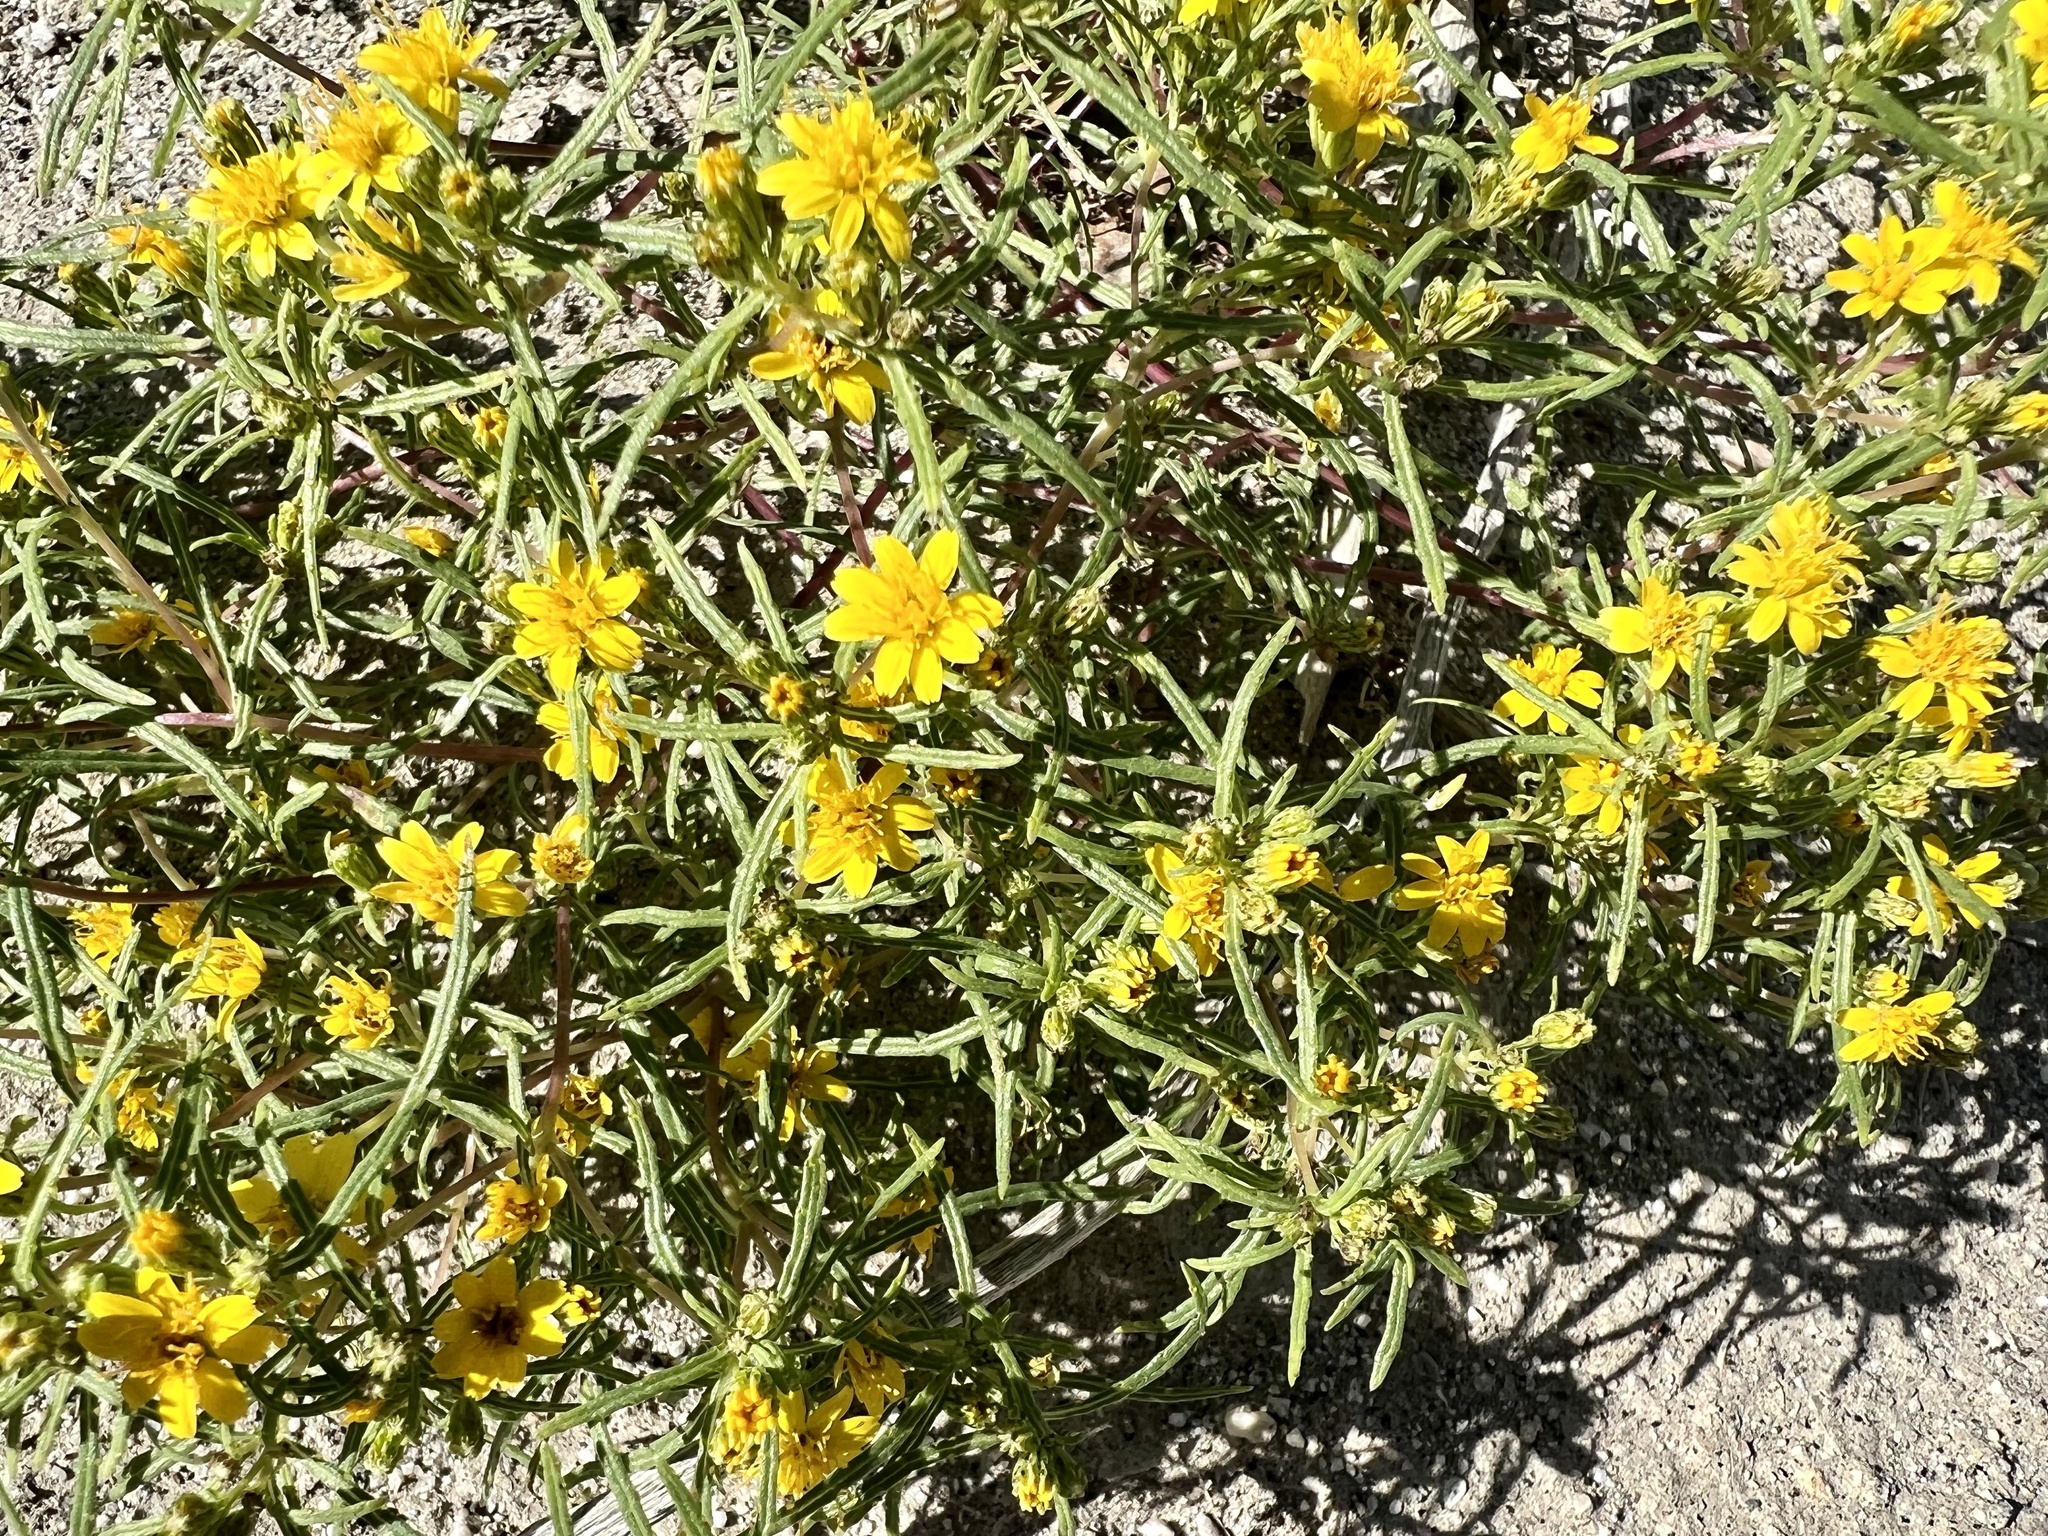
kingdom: Plantae
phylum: Tracheophyta
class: Magnoliopsida
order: Asterales
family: Asteraceae
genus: Pectis
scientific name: Pectis papposa
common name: Many-bristle chinchweed
